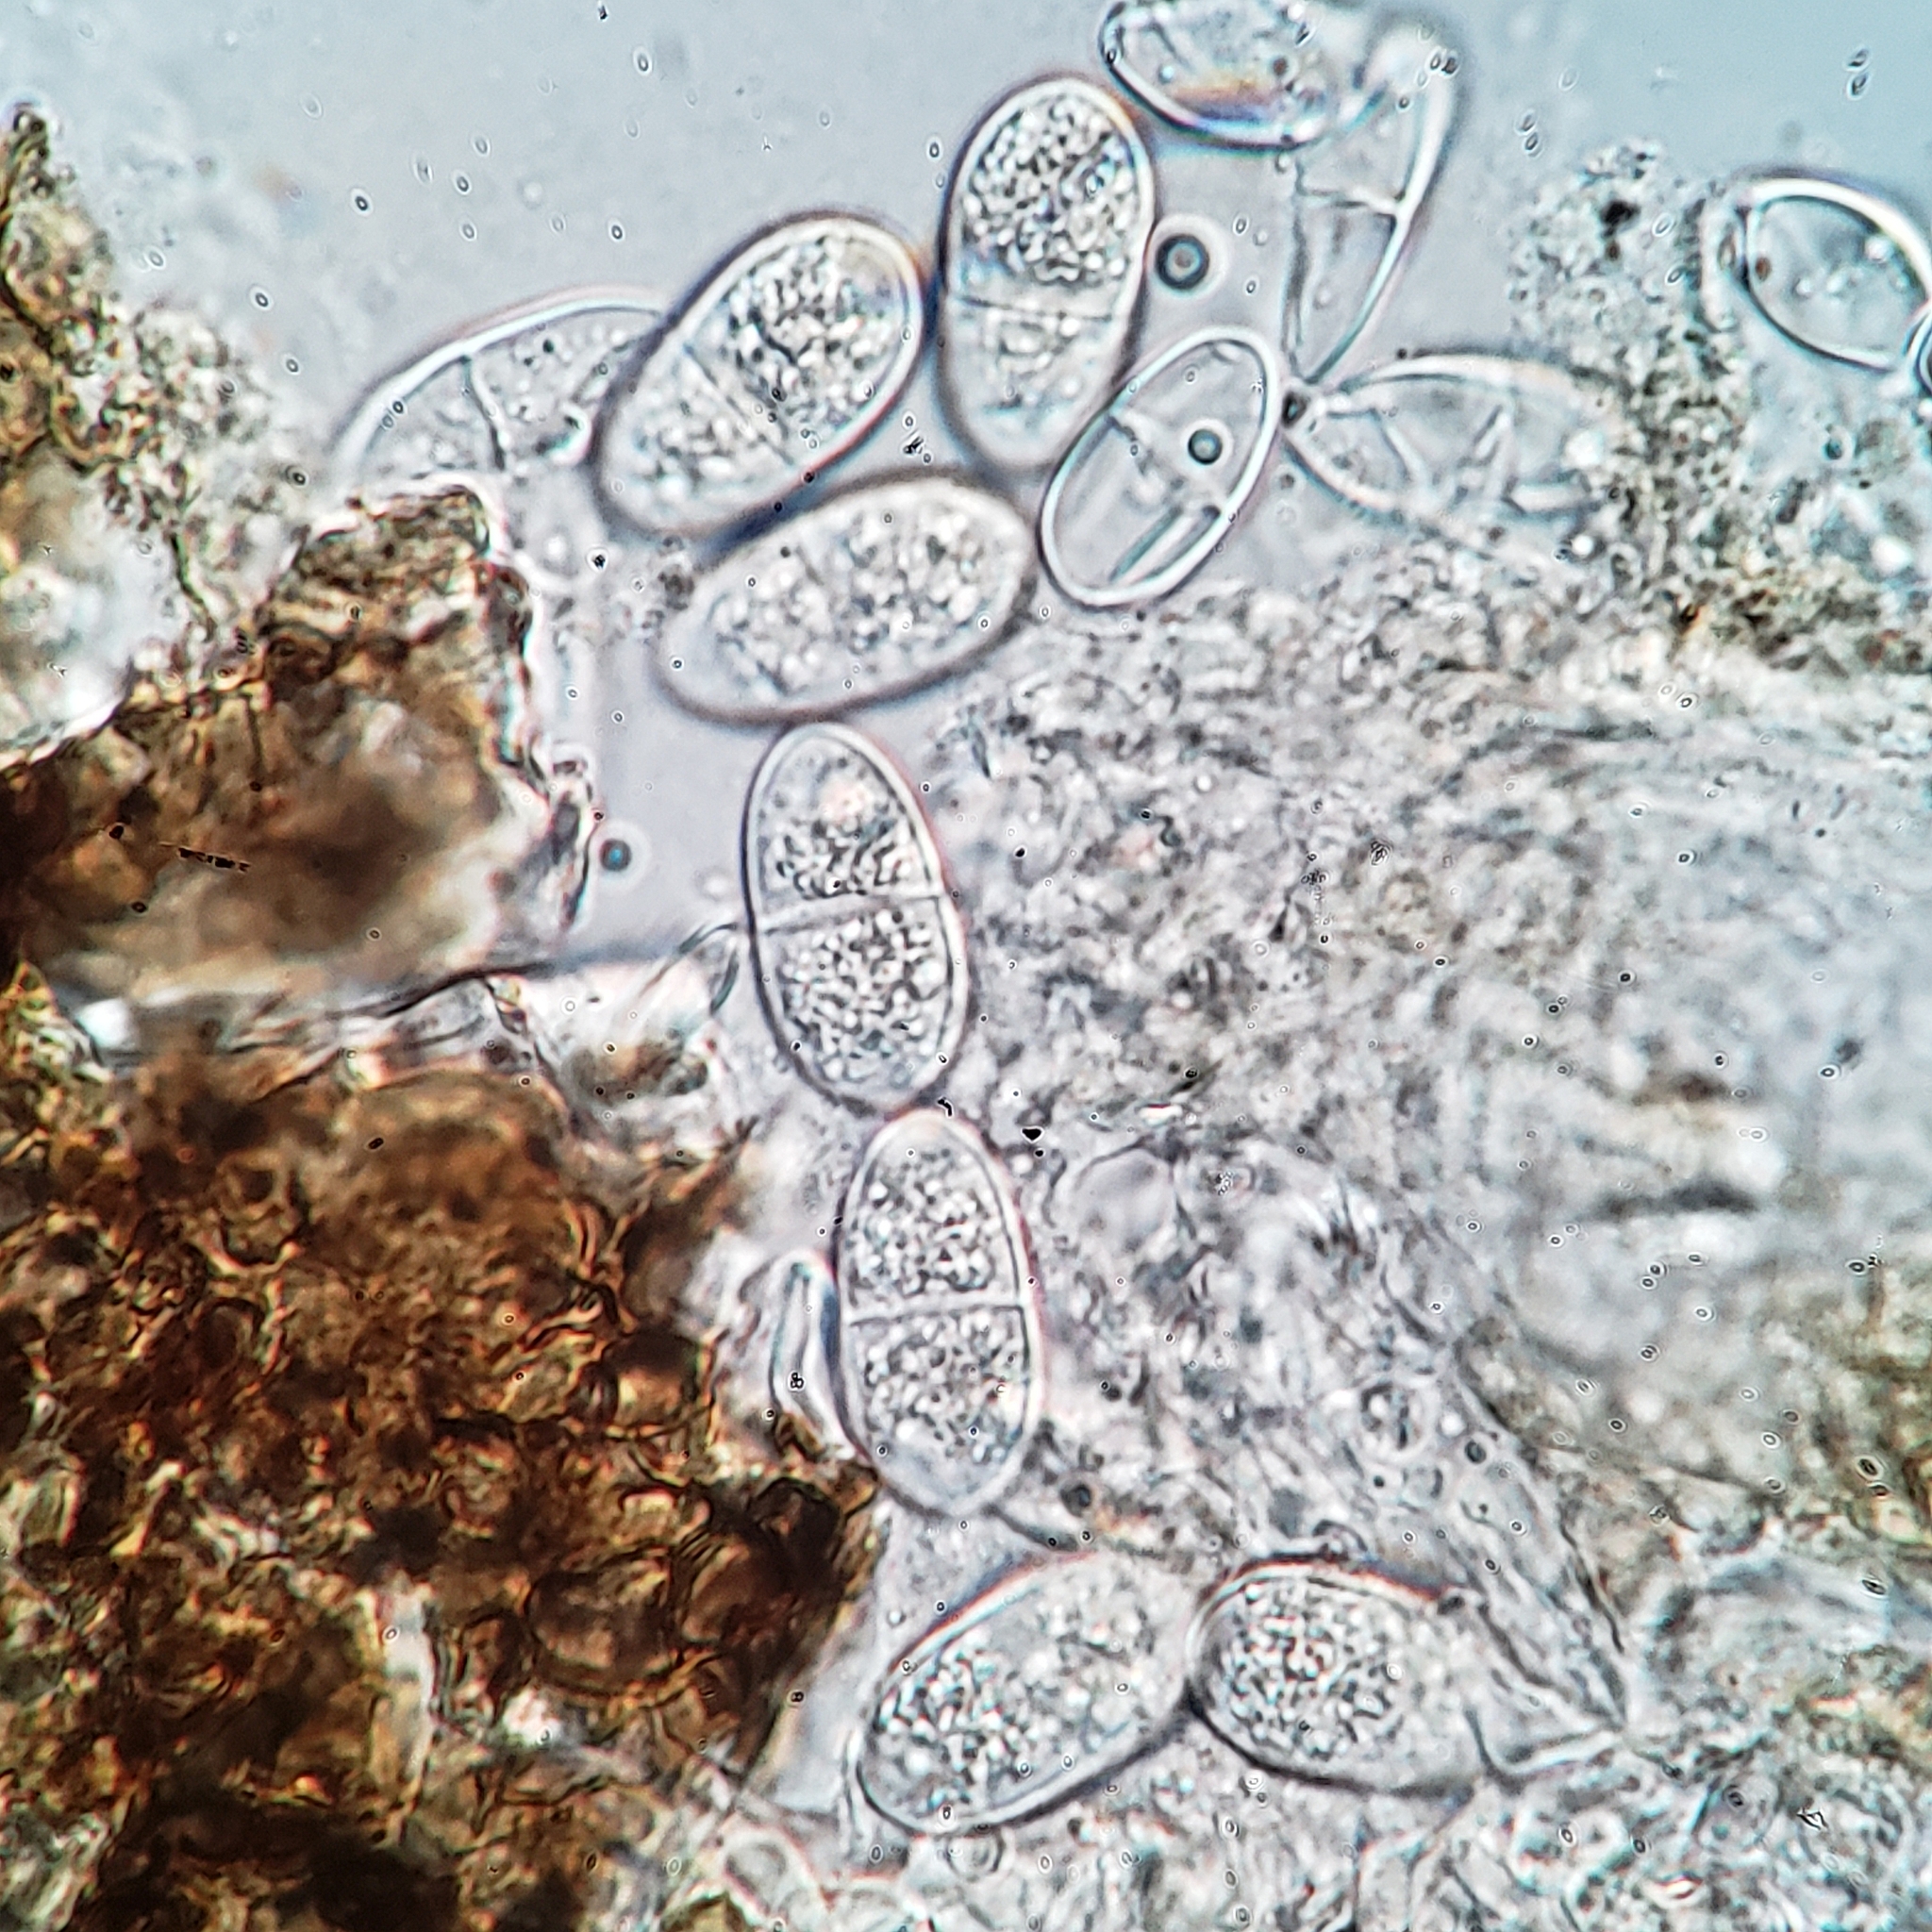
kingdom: Fungi
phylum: Ascomycota
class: Arthoniomycetes
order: Arthoniales
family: Arthoniaceae
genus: Arthonia
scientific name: Arthonia granosa
